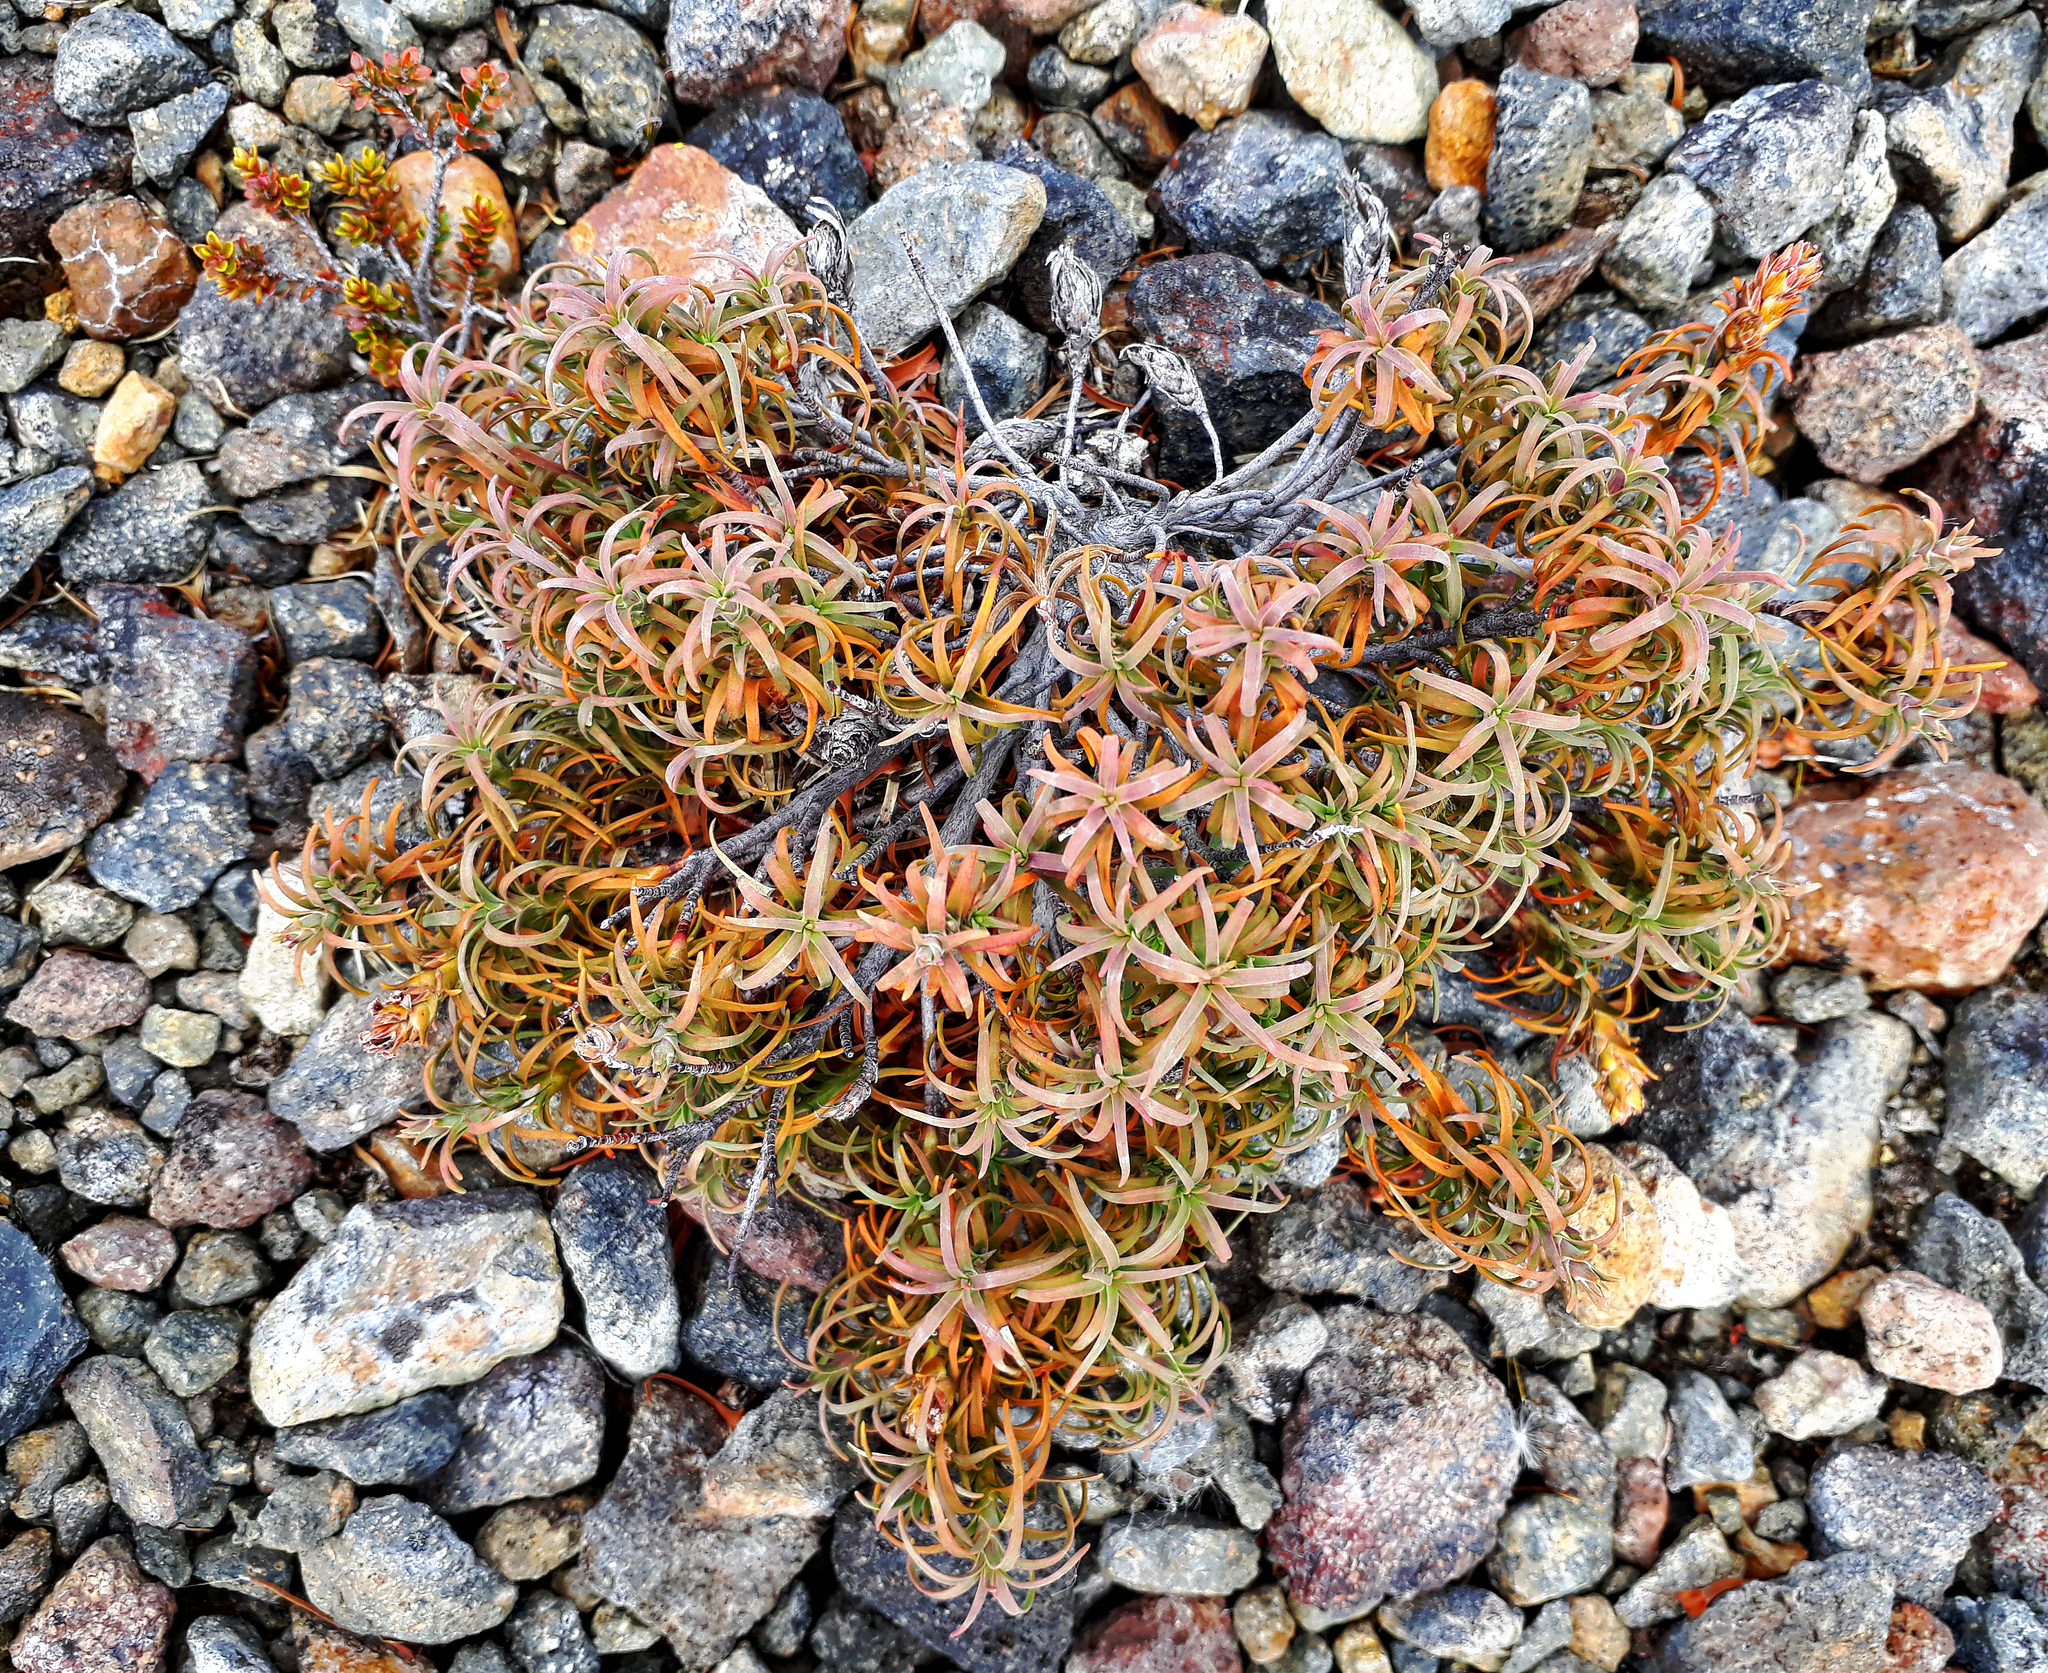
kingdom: Plantae
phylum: Tracheophyta
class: Magnoliopsida
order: Ericales
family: Ericaceae
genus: Dracophyllum
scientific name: Dracophyllum recurvum
